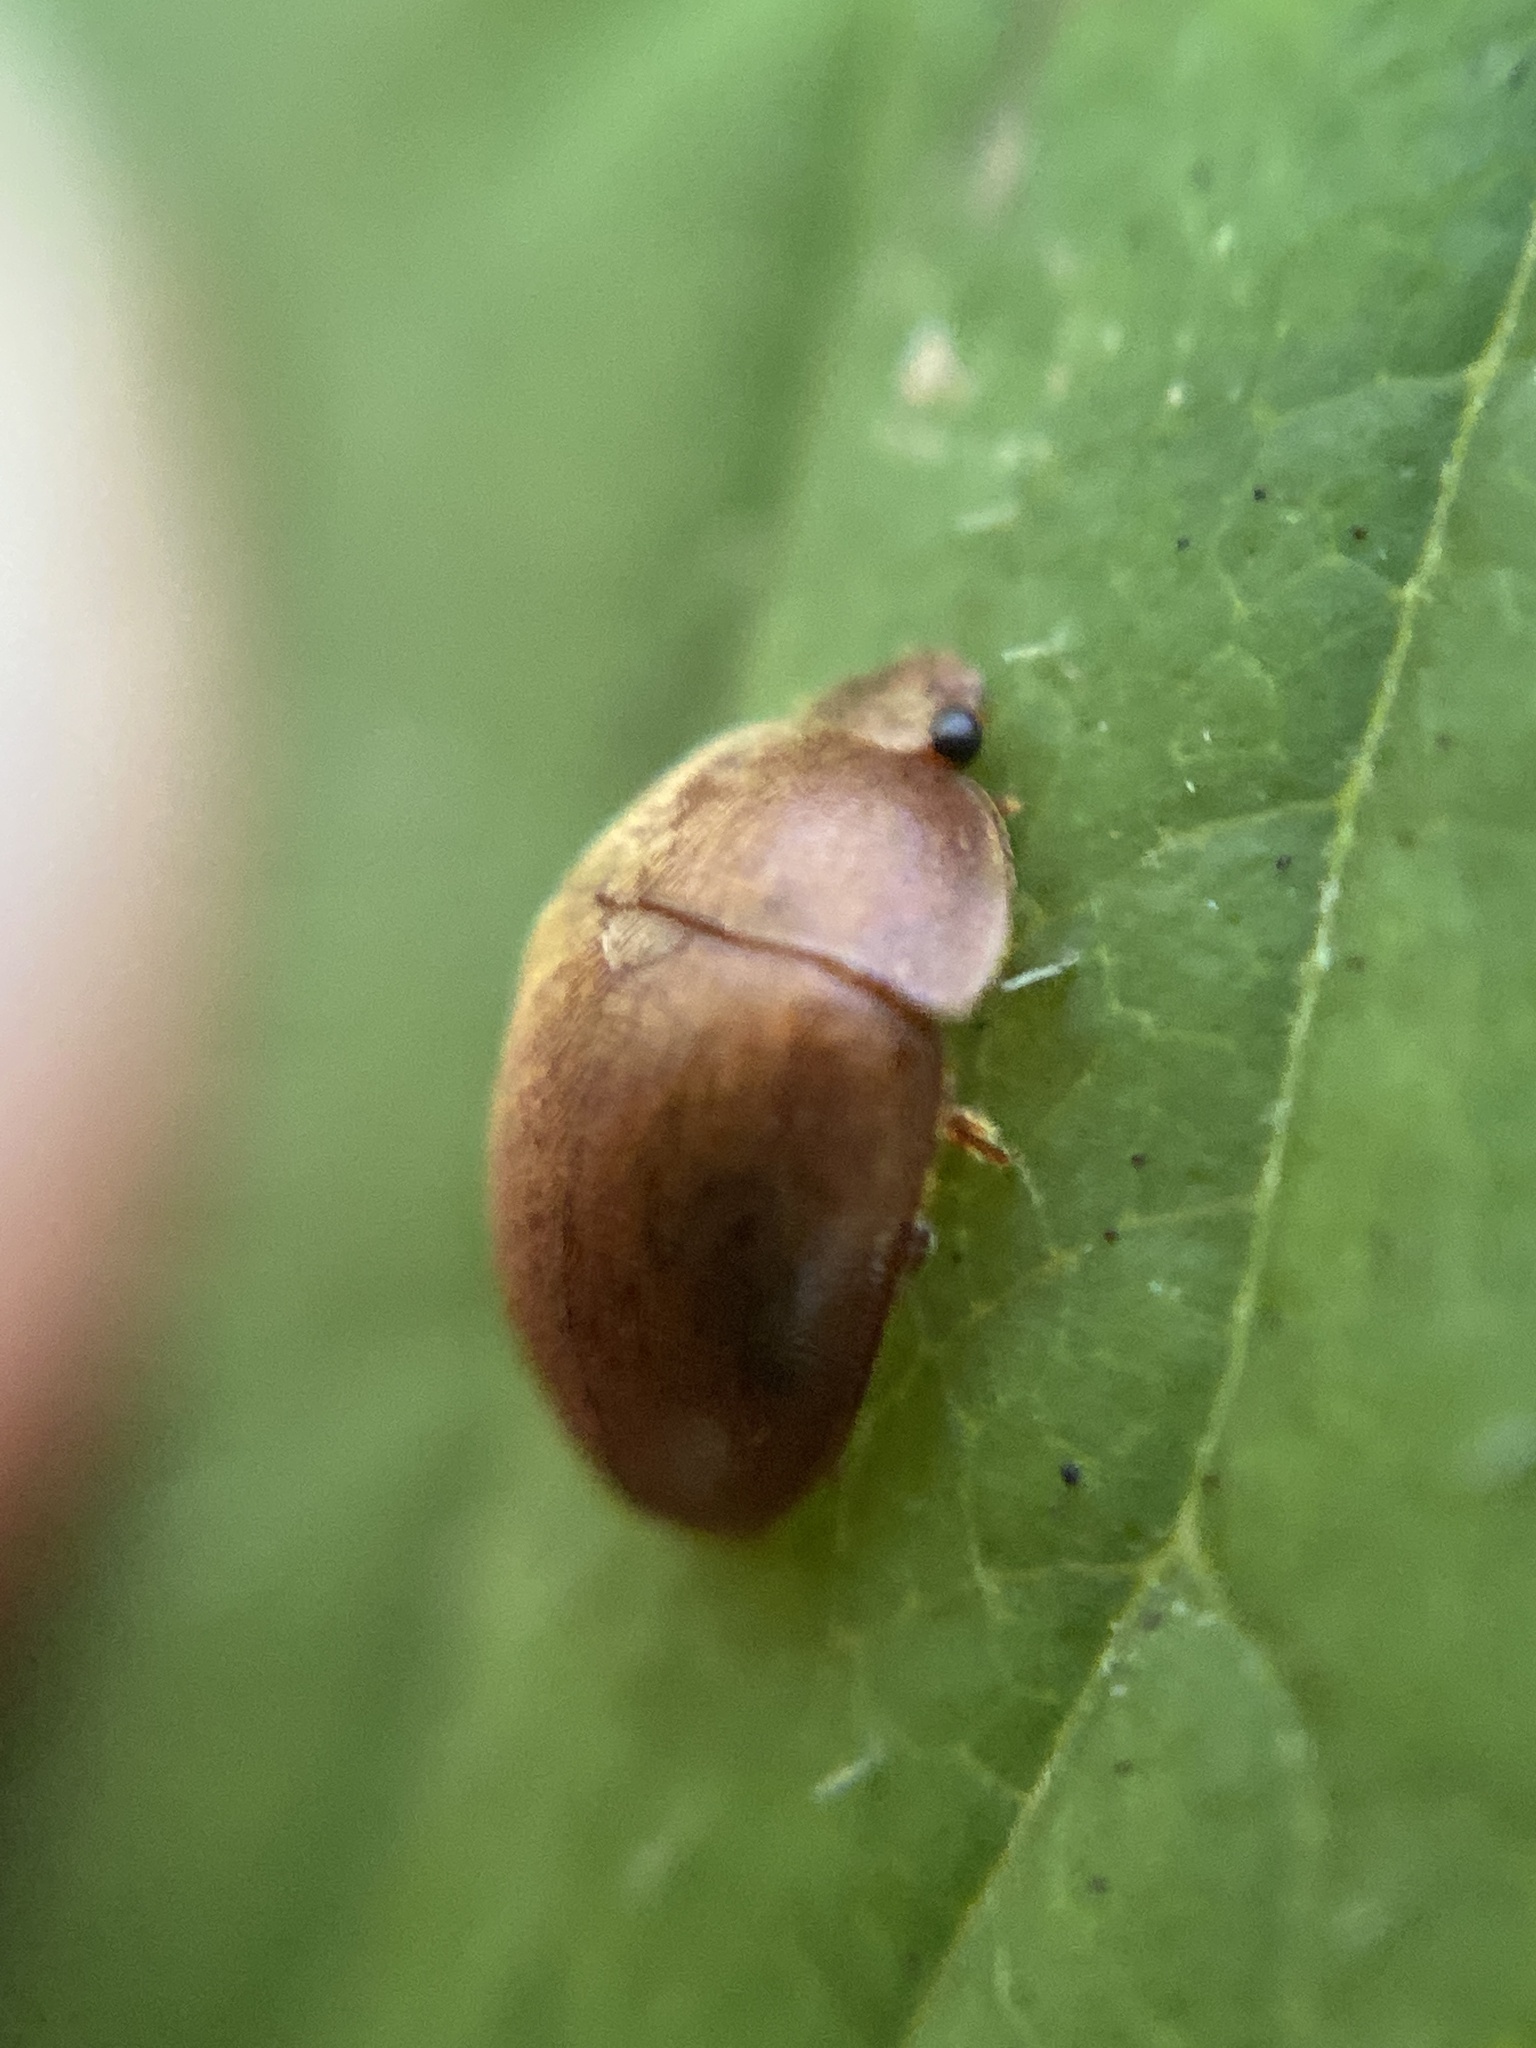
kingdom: Animalia
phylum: Arthropoda
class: Insecta
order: Coleoptera
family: Nitidulidae
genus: Cychramus
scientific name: Cychramus luteus
